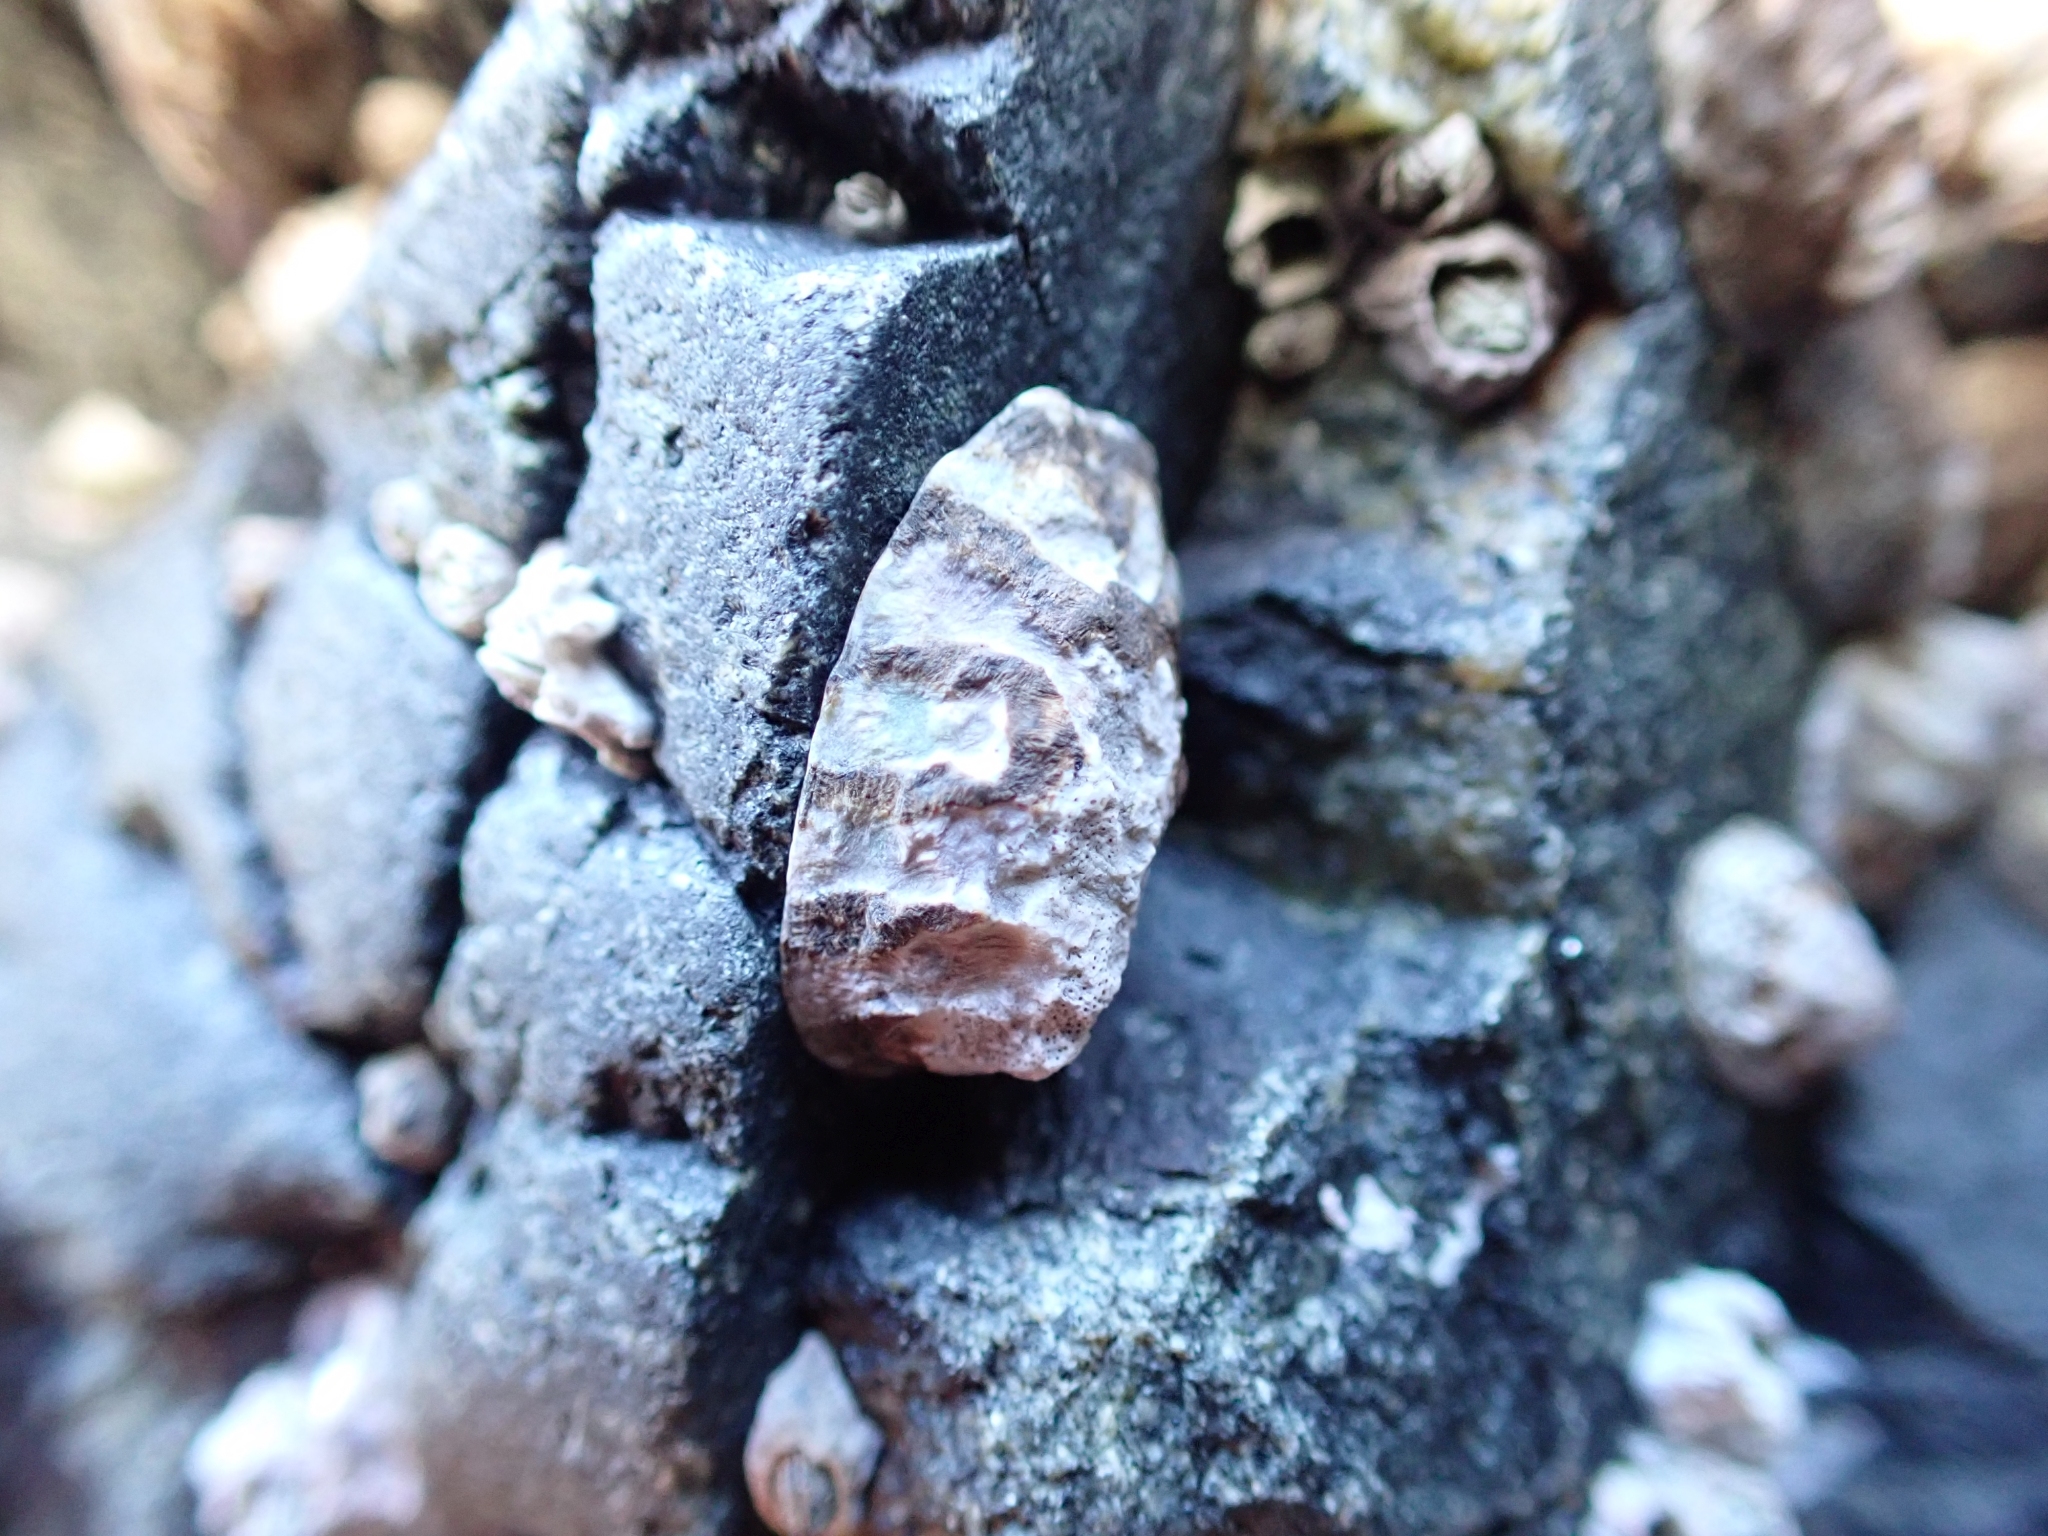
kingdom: Animalia
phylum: Mollusca
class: Gastropoda
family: Lottiidae
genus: Lottia
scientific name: Lottia digitalis
